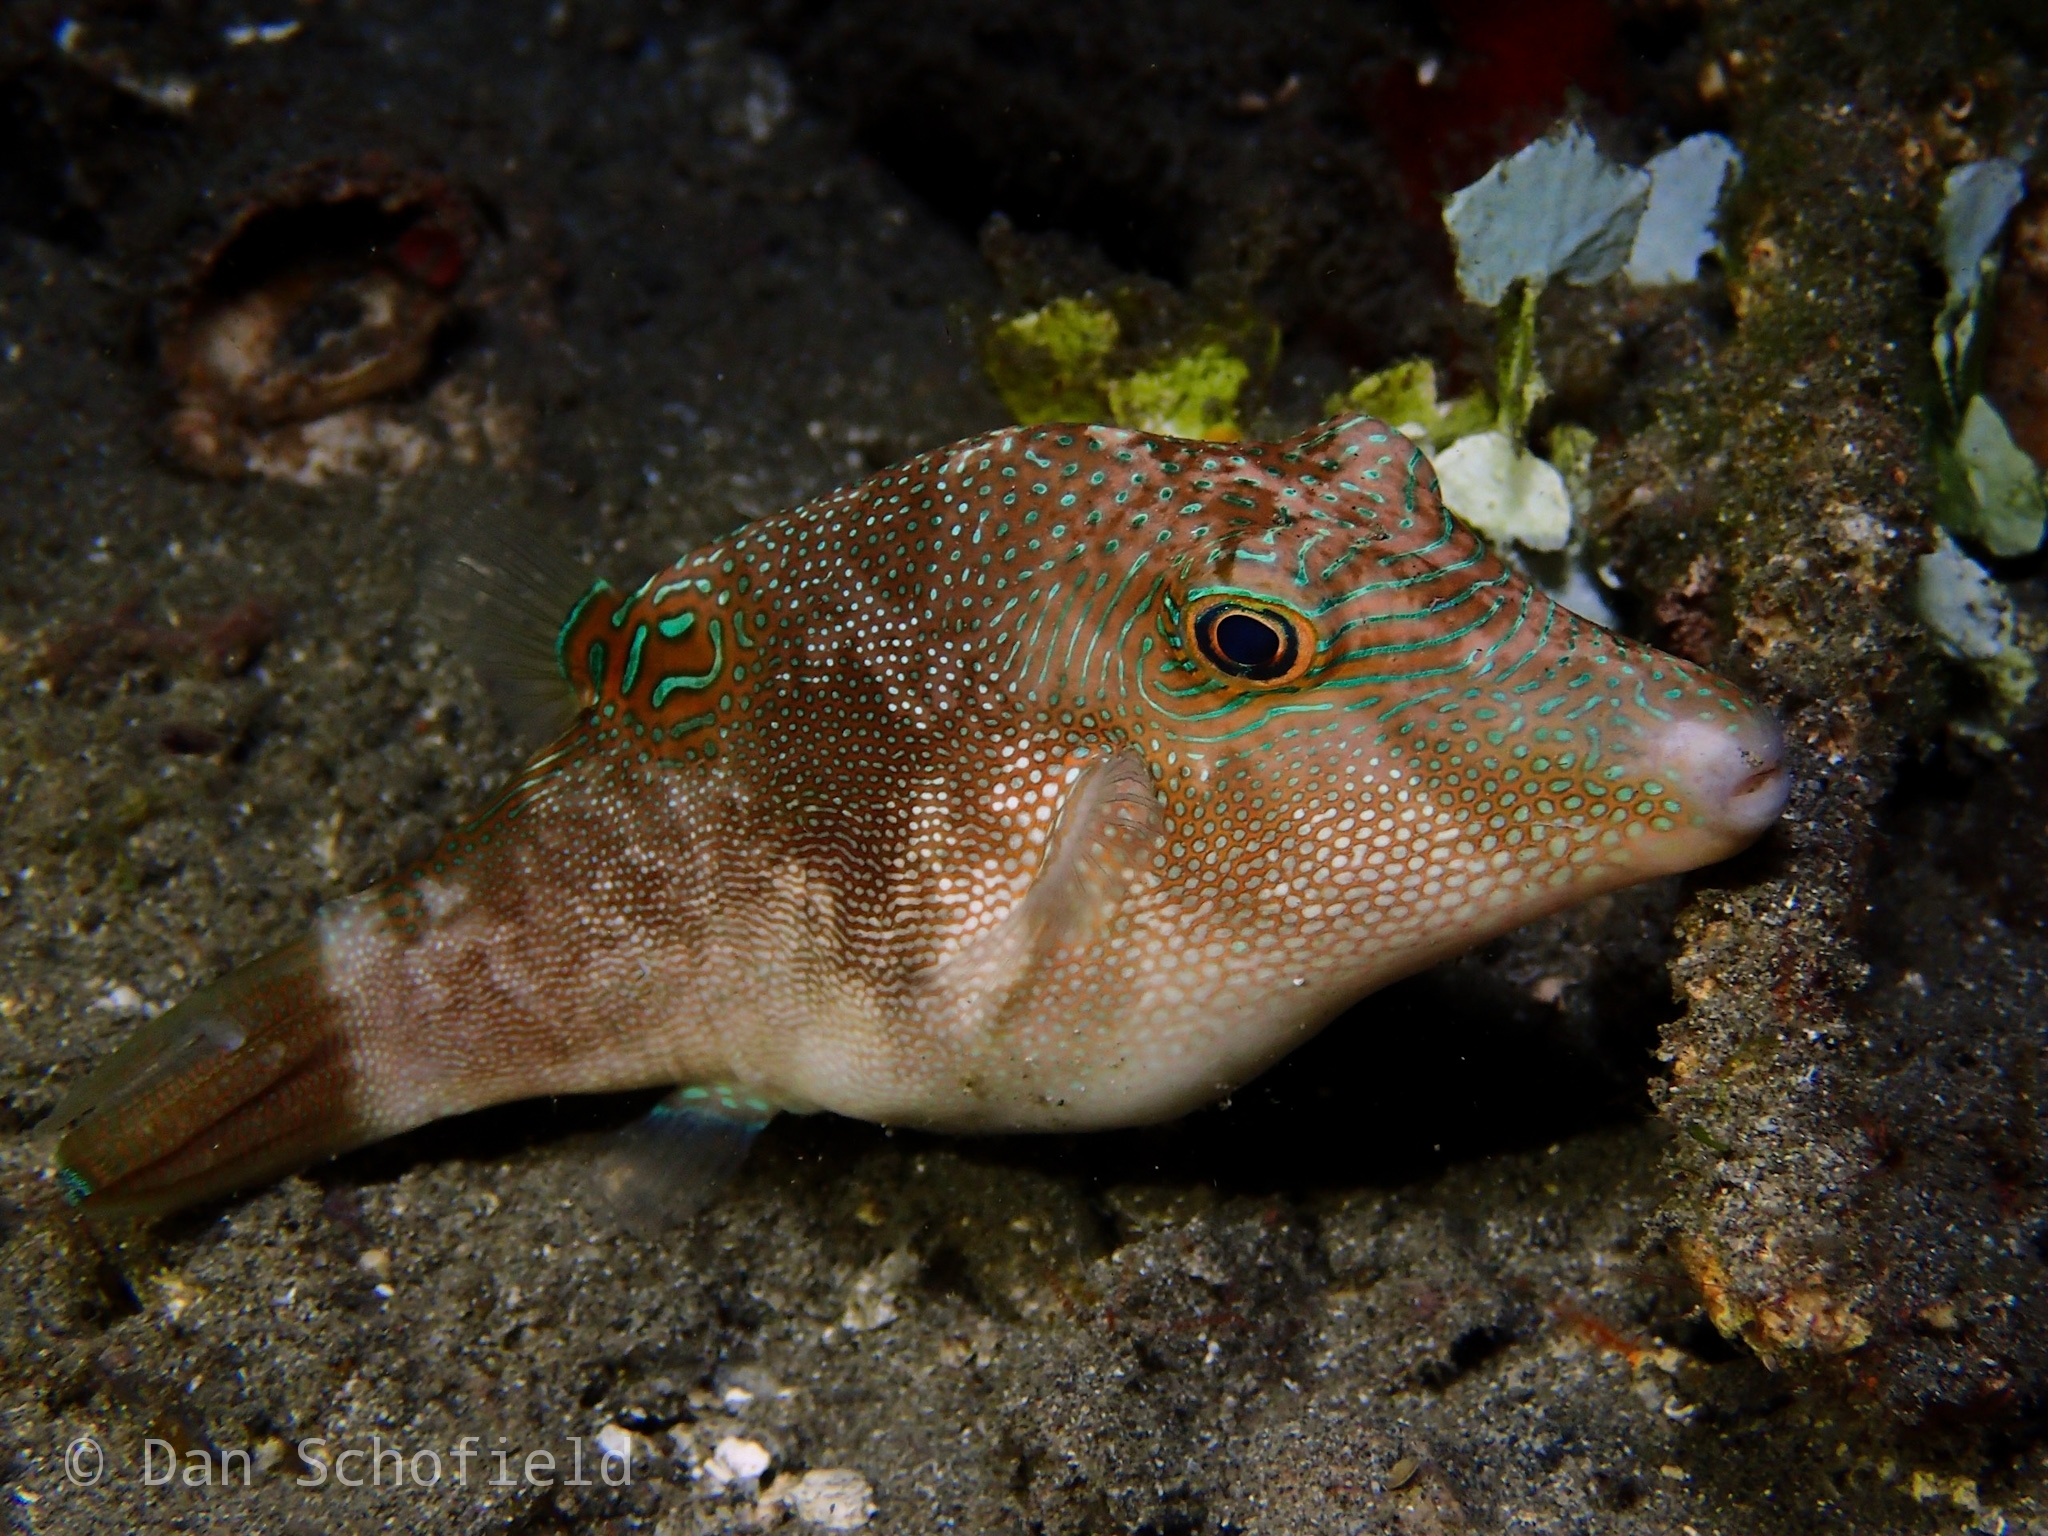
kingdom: Animalia
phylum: Chordata
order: Tetraodontiformes
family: Tetraodontidae
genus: Canthigaster
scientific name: Canthigaster compressa
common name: Compressed toby
